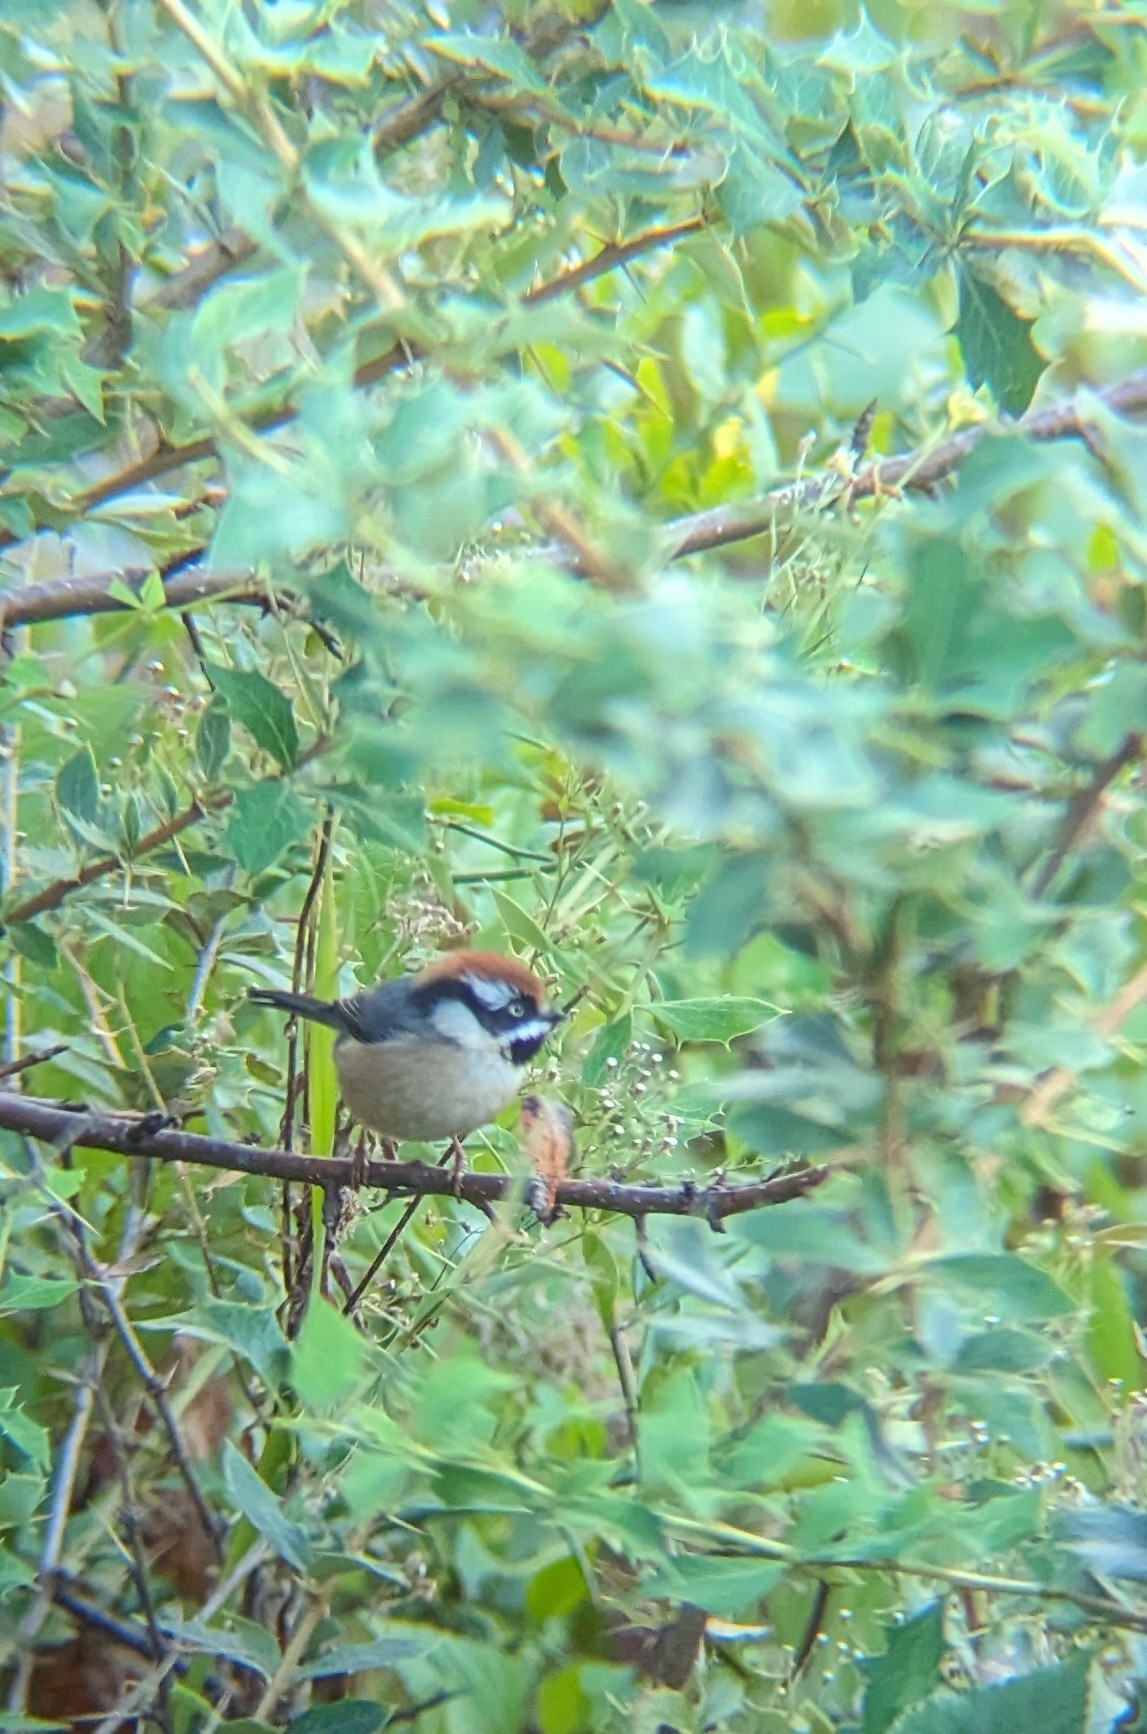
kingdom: Animalia
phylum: Chordata
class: Aves
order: Passeriformes
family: Aegithalidae
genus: Aegithalos
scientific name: Aegithalos concinnus
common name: Black-throated bushtit
